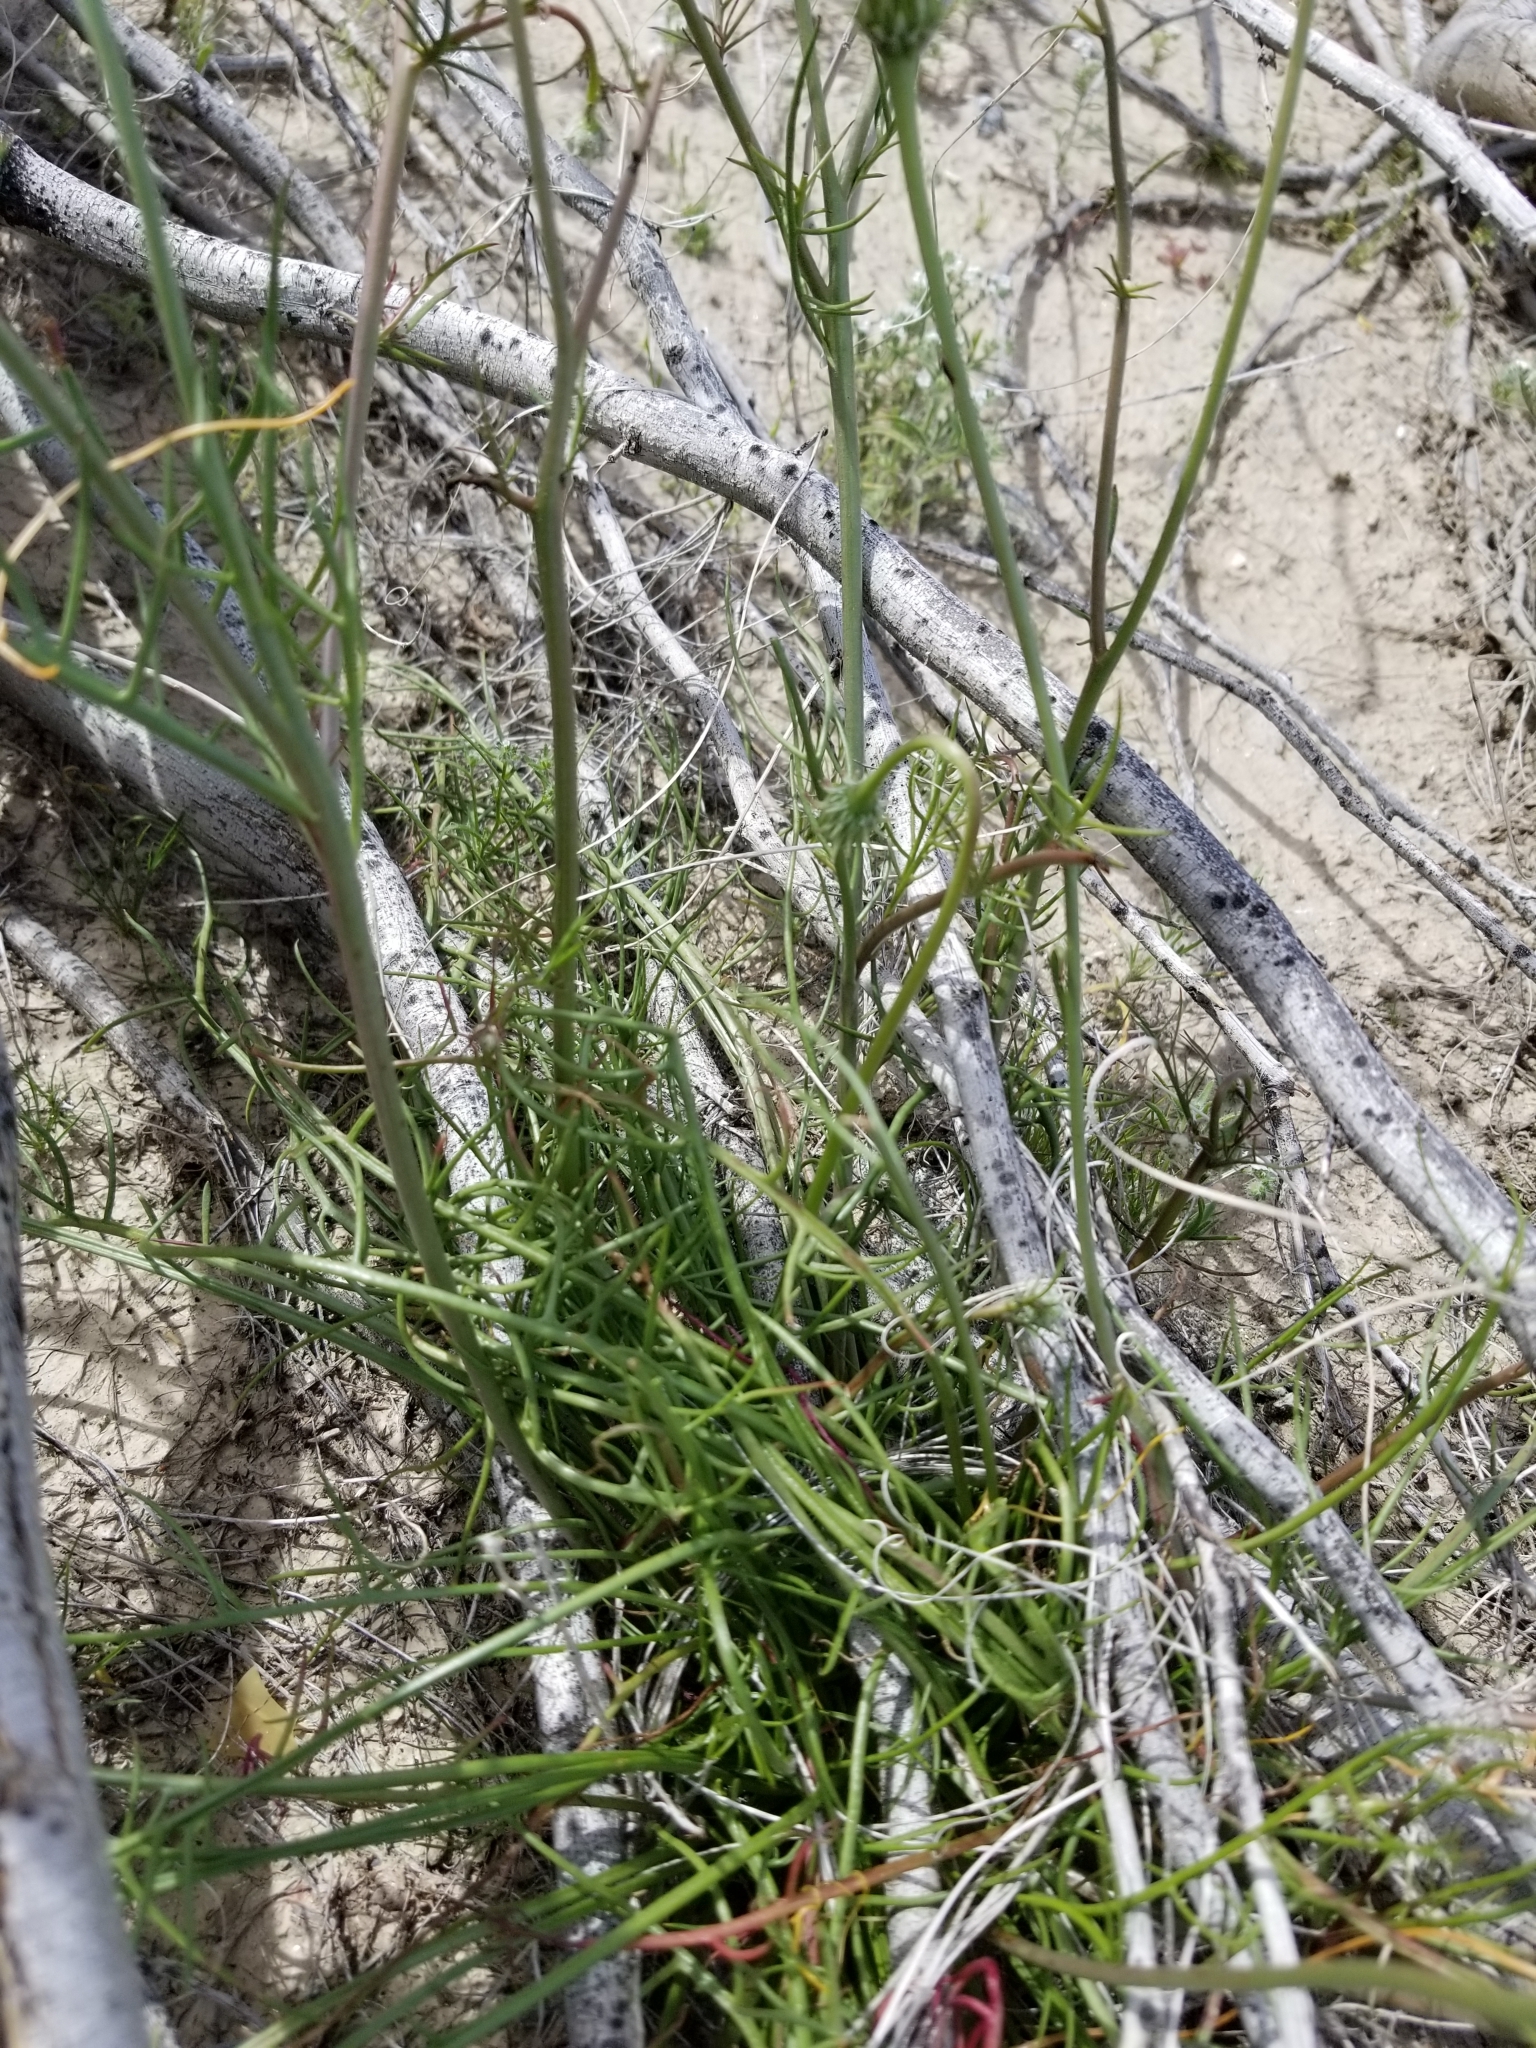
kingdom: Plantae
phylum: Tracheophyta
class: Magnoliopsida
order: Asterales
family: Asteraceae
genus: Malacothrix
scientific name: Malacothrix glabrata
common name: Smooth desert-dandelion
